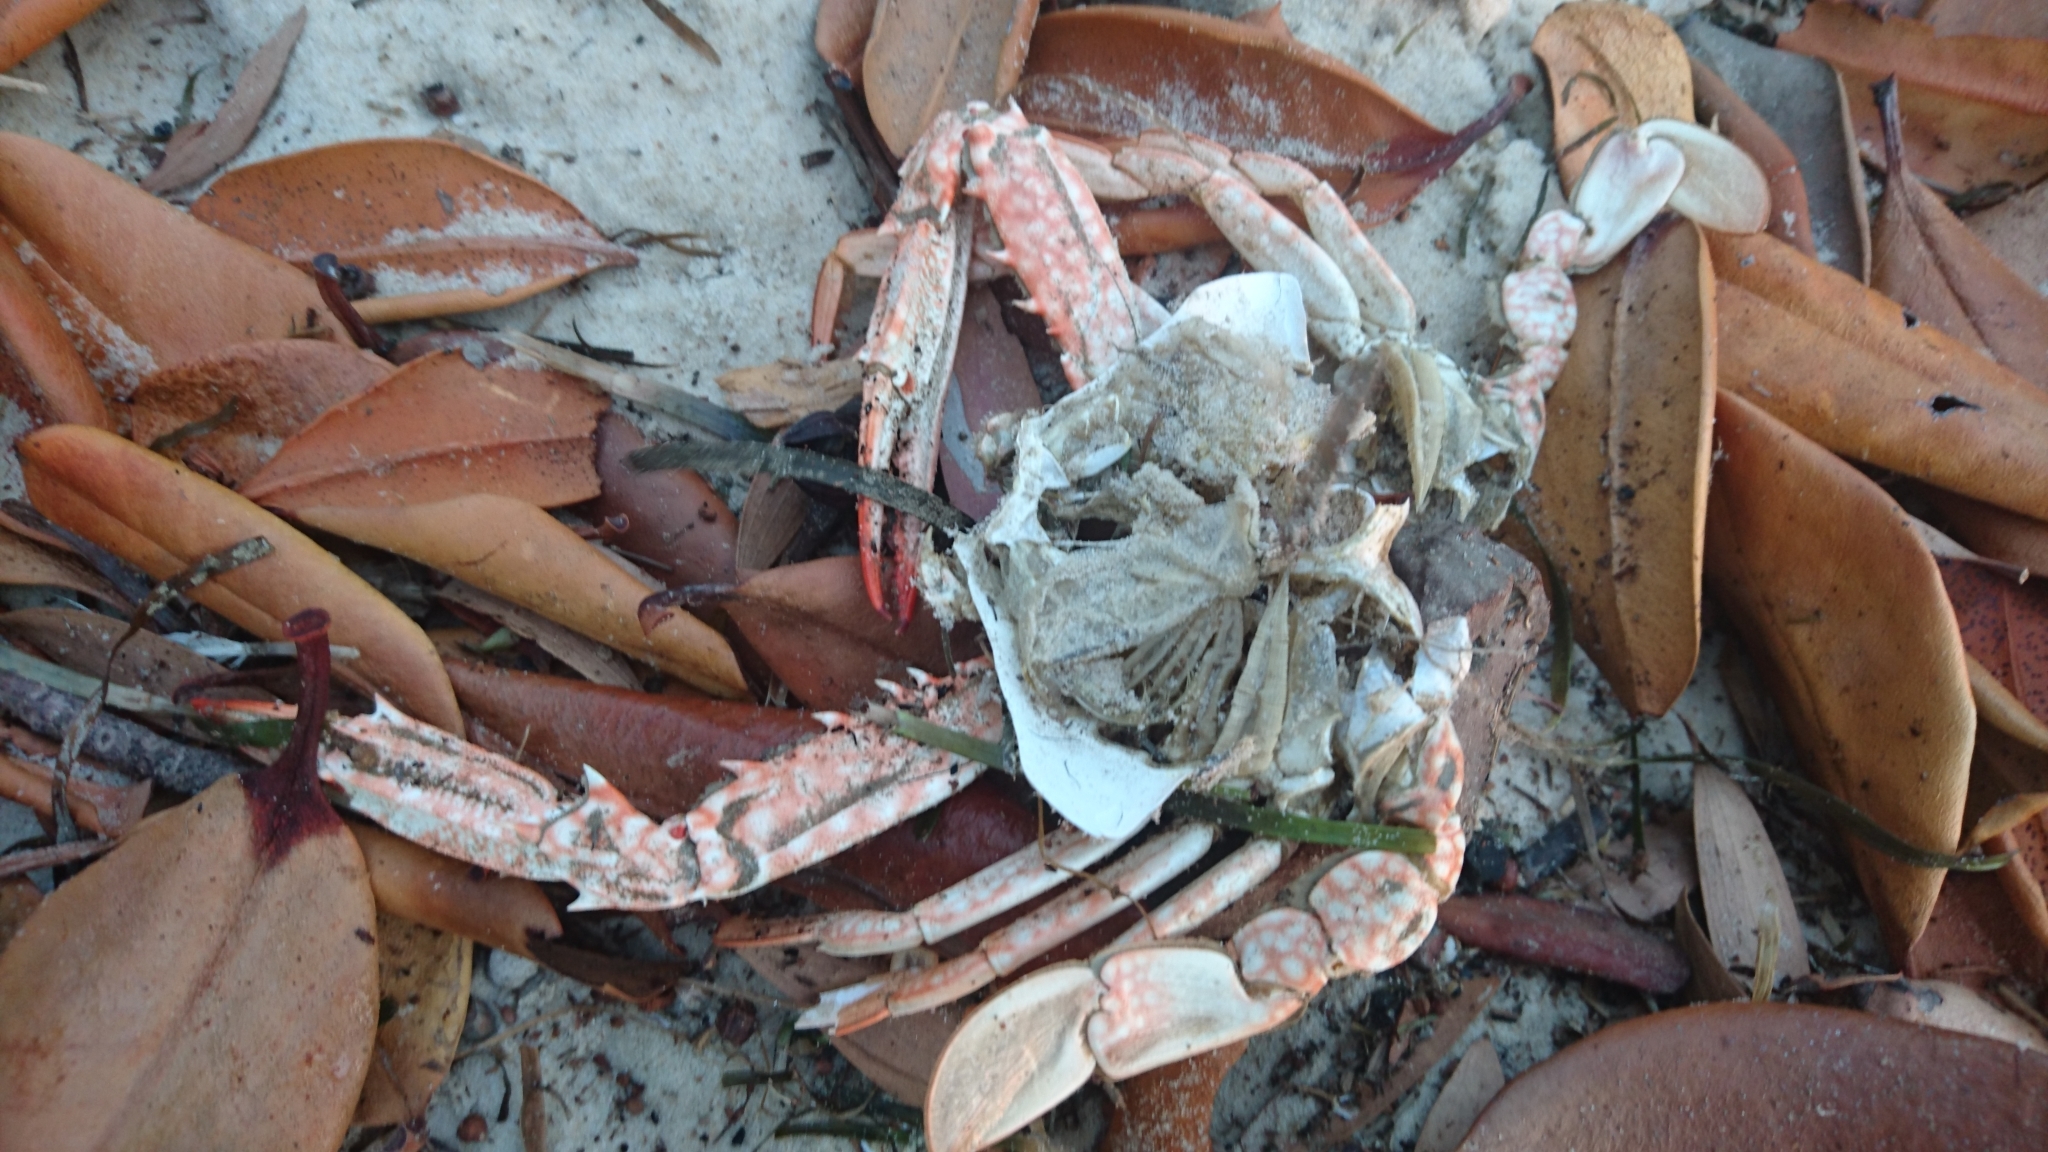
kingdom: Animalia
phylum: Arthropoda
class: Malacostraca
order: Decapoda
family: Portunidae
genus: Portunus
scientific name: Portunus armatus
